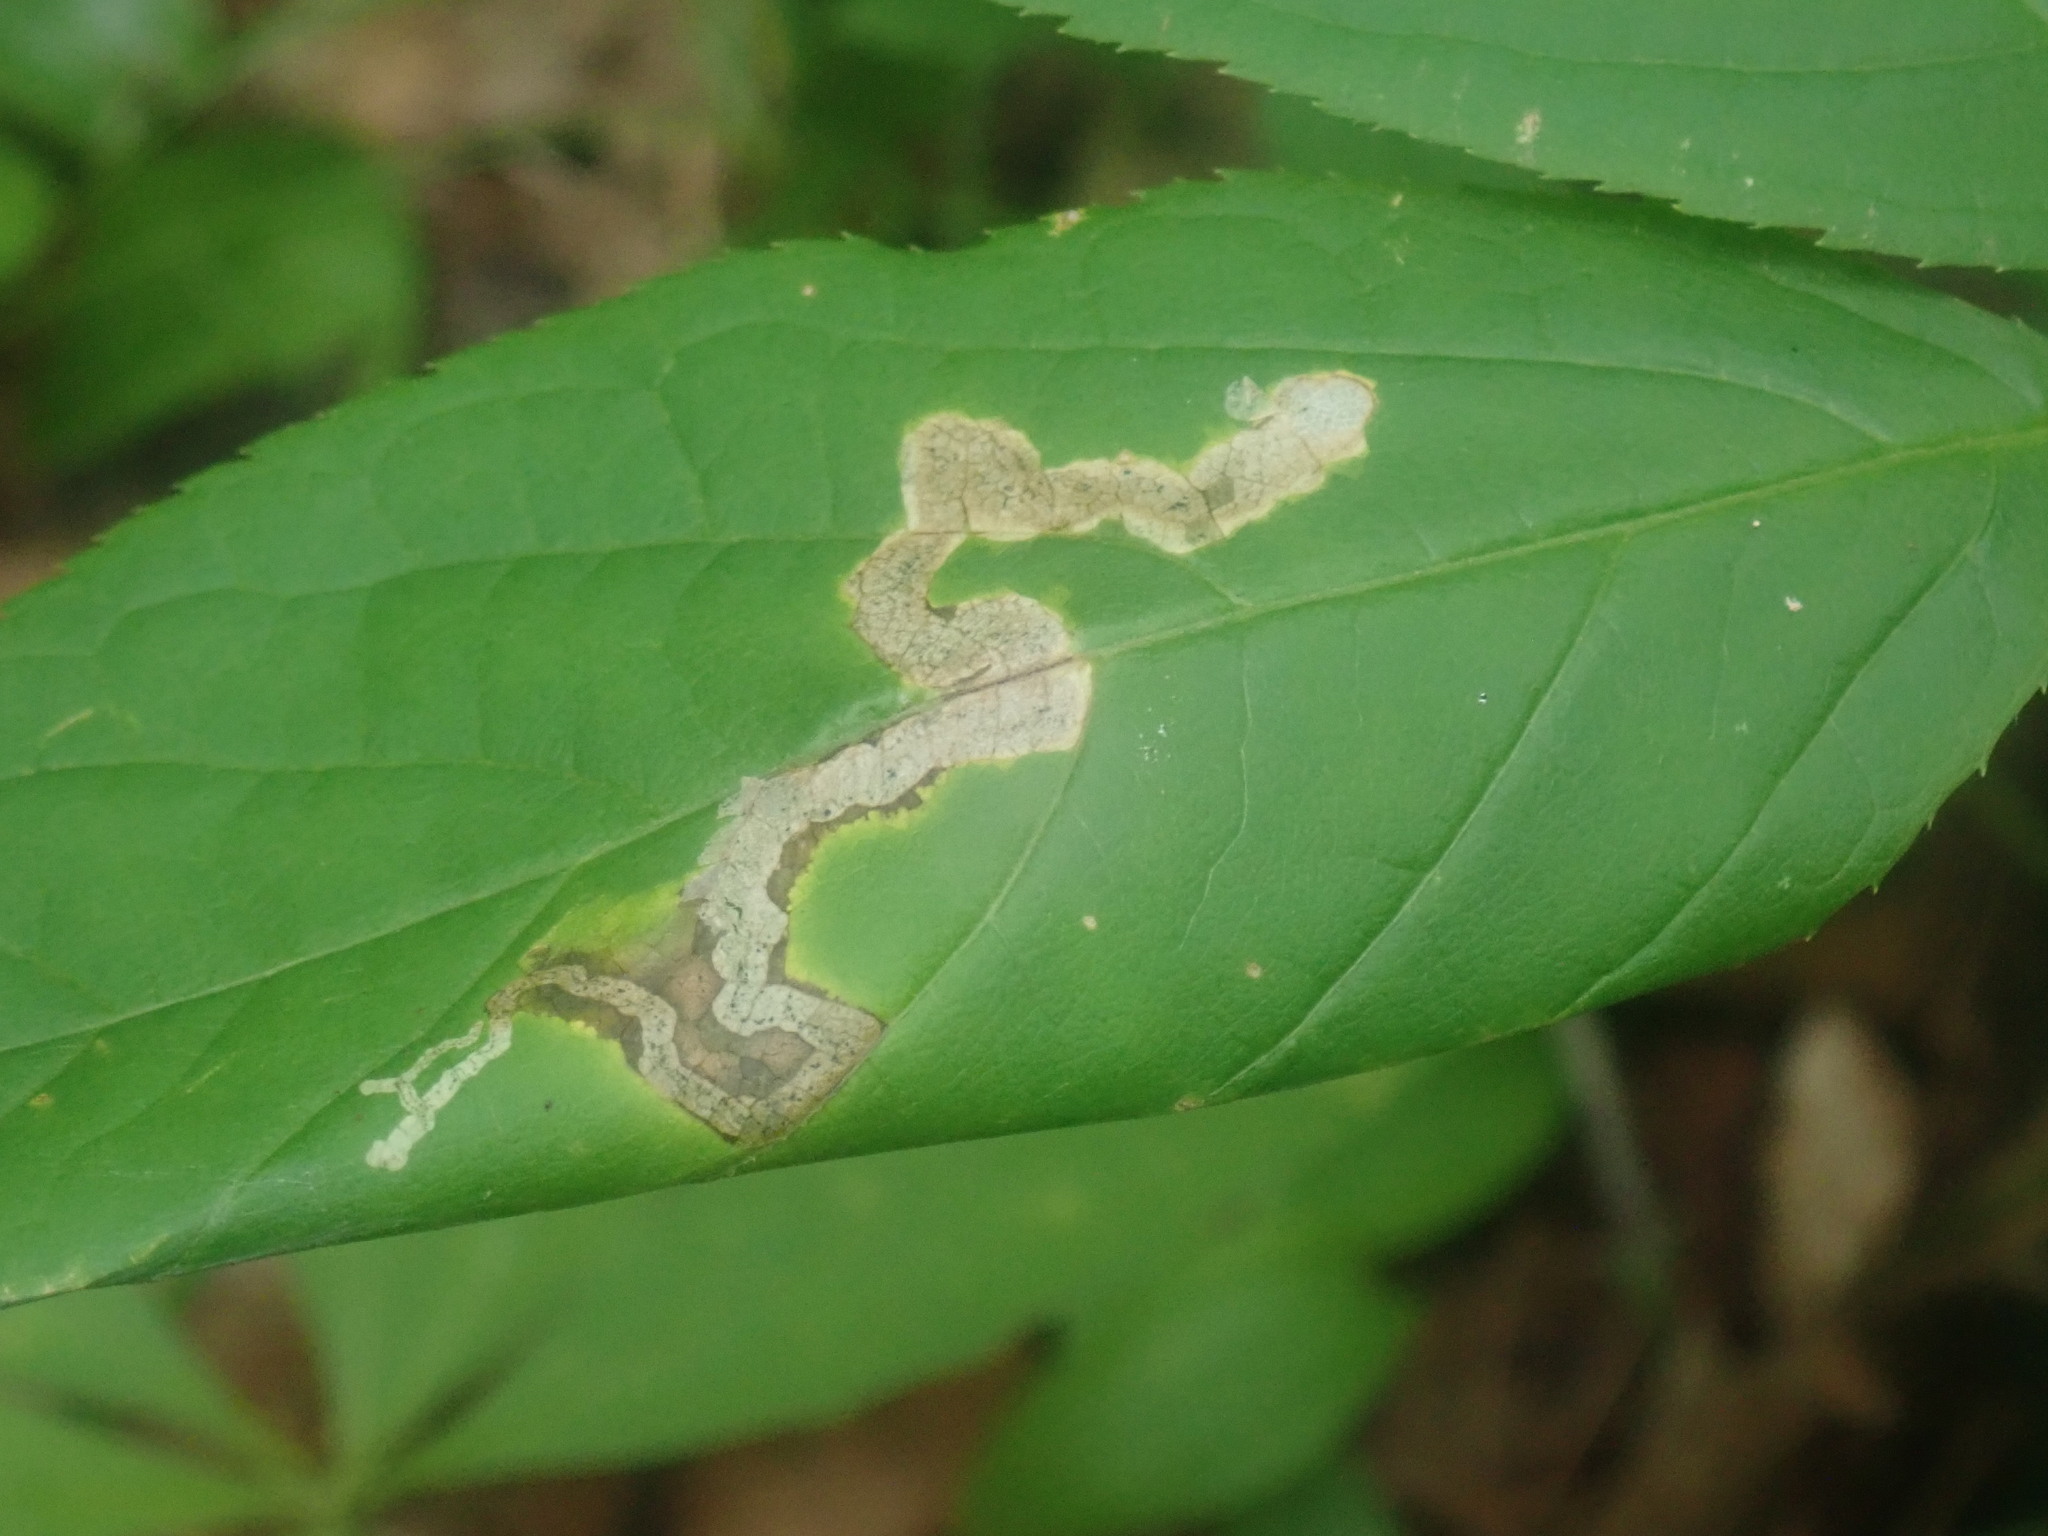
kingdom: Animalia
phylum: Arthropoda
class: Insecta
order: Diptera
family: Agromyzidae
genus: Phytomyza
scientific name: Phytomyza aralivora
